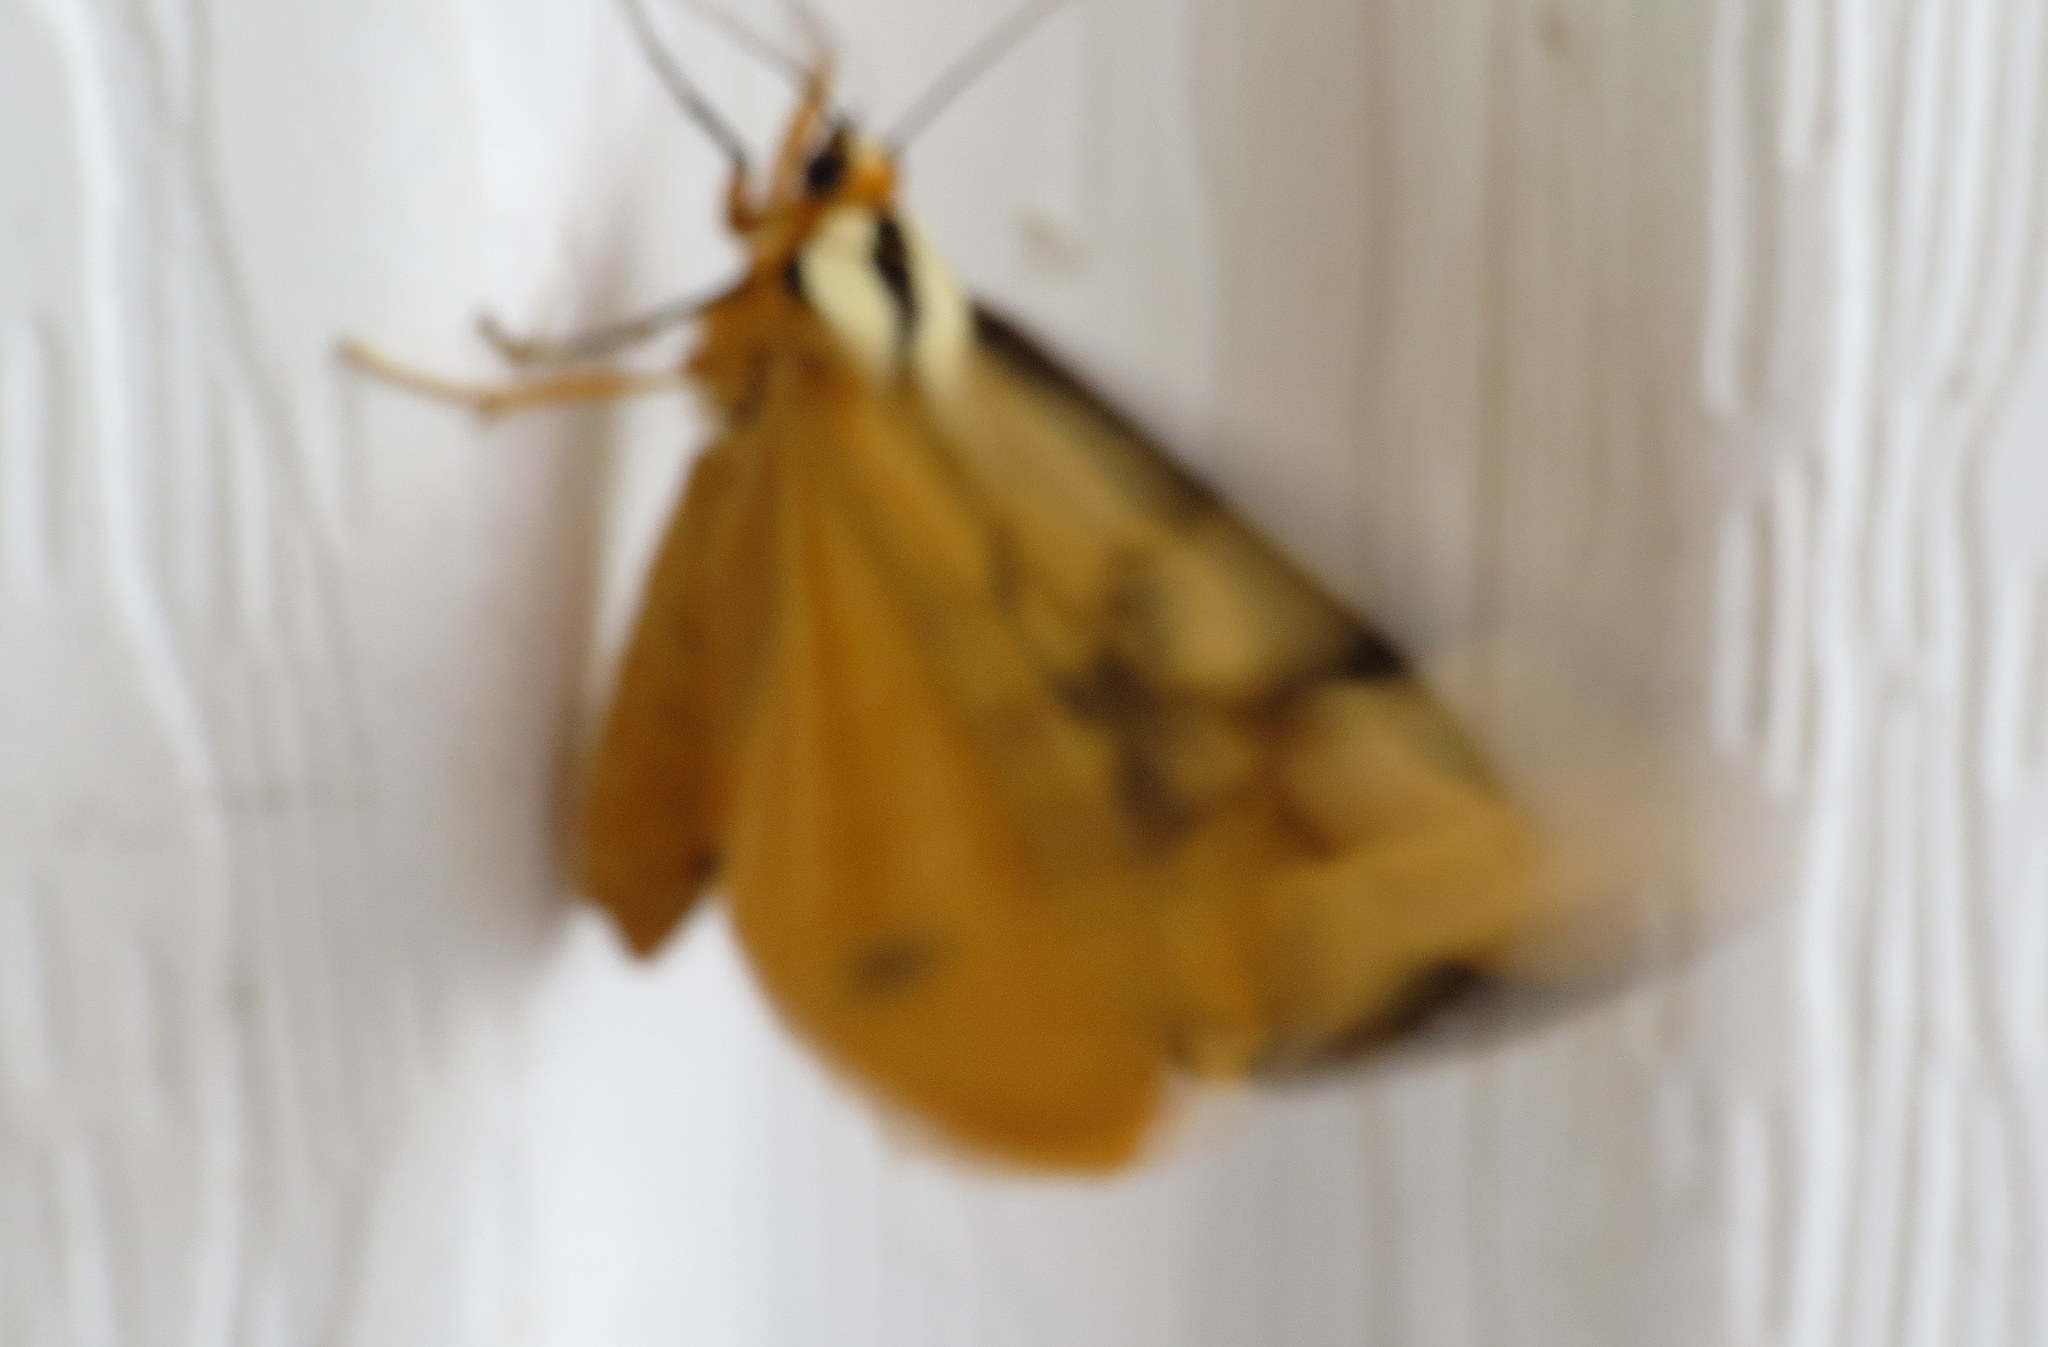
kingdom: Animalia
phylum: Arthropoda
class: Insecta
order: Lepidoptera
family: Erebidae
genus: Haploa
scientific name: Haploa clymene
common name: Clymene moth
